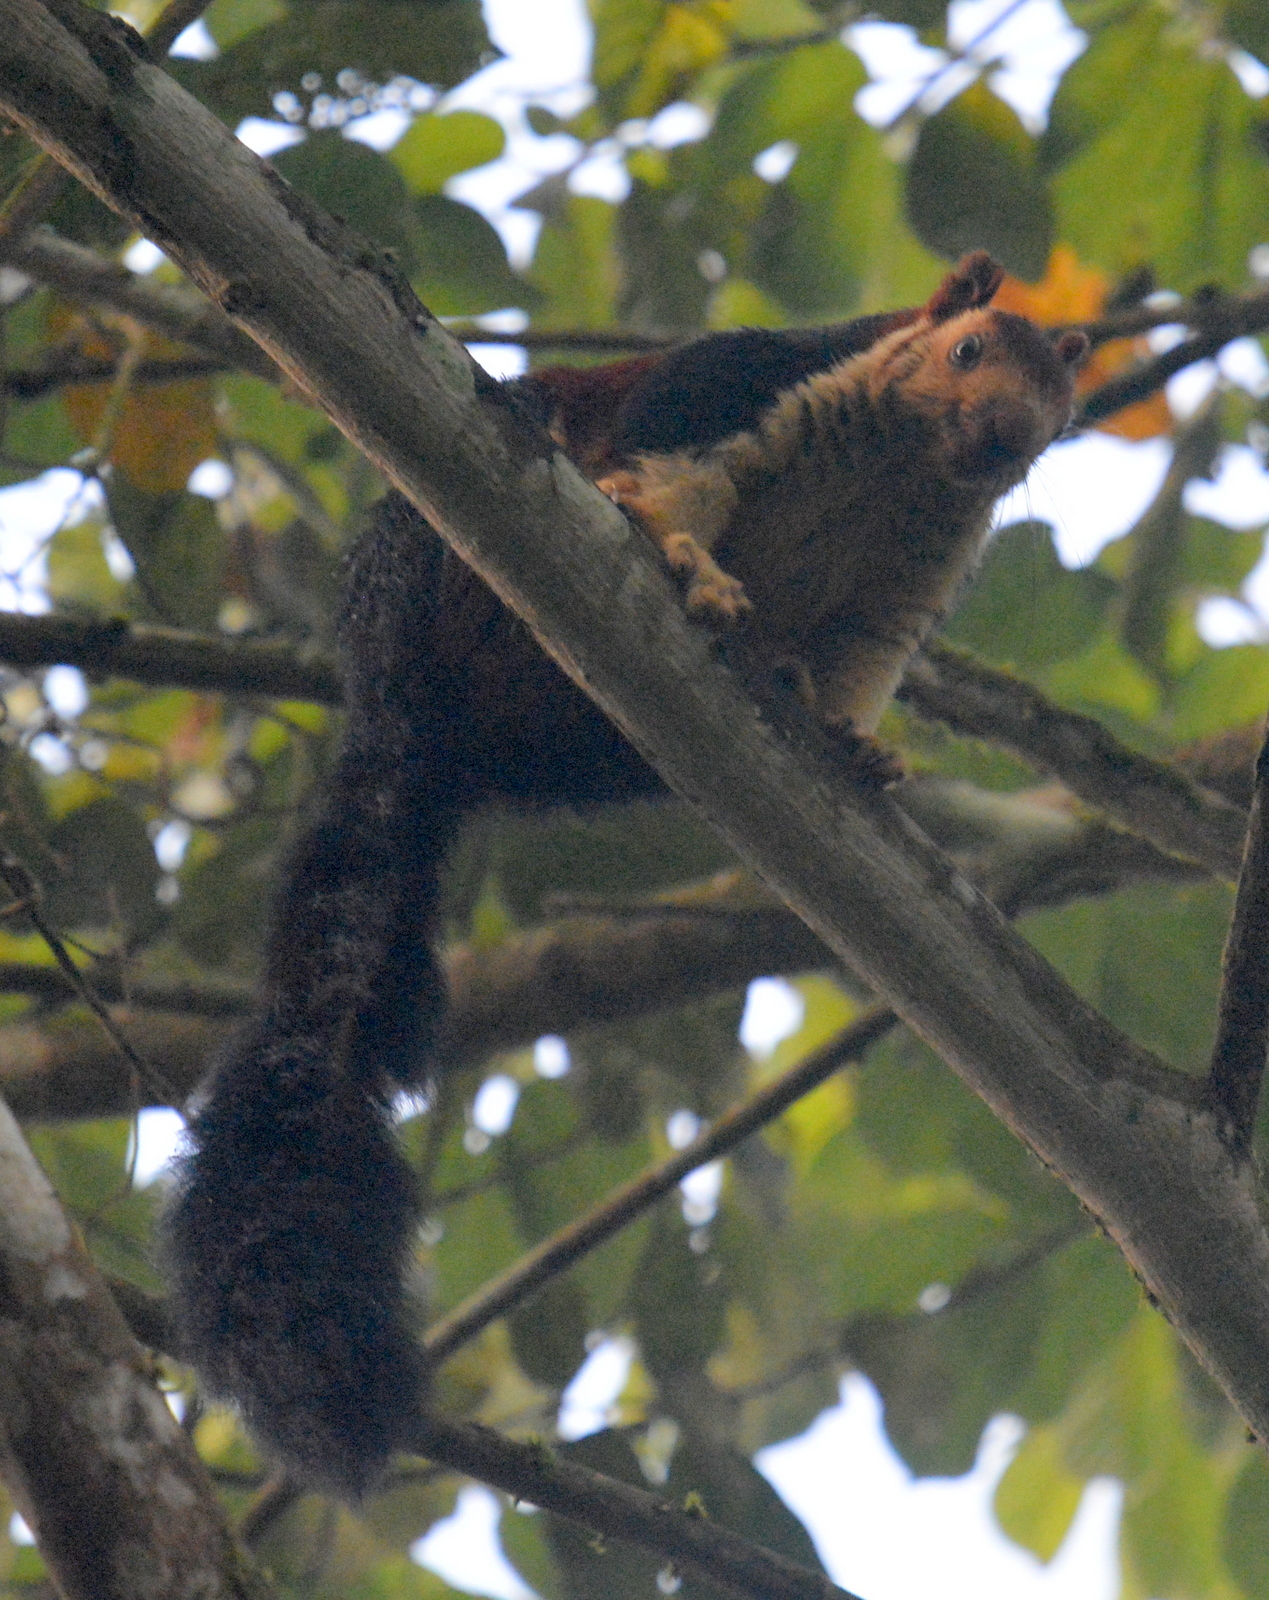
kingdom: Animalia
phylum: Chordata
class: Mammalia
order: Rodentia
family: Sciuridae
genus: Ratufa
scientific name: Ratufa indica
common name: Indian giant squirrel
